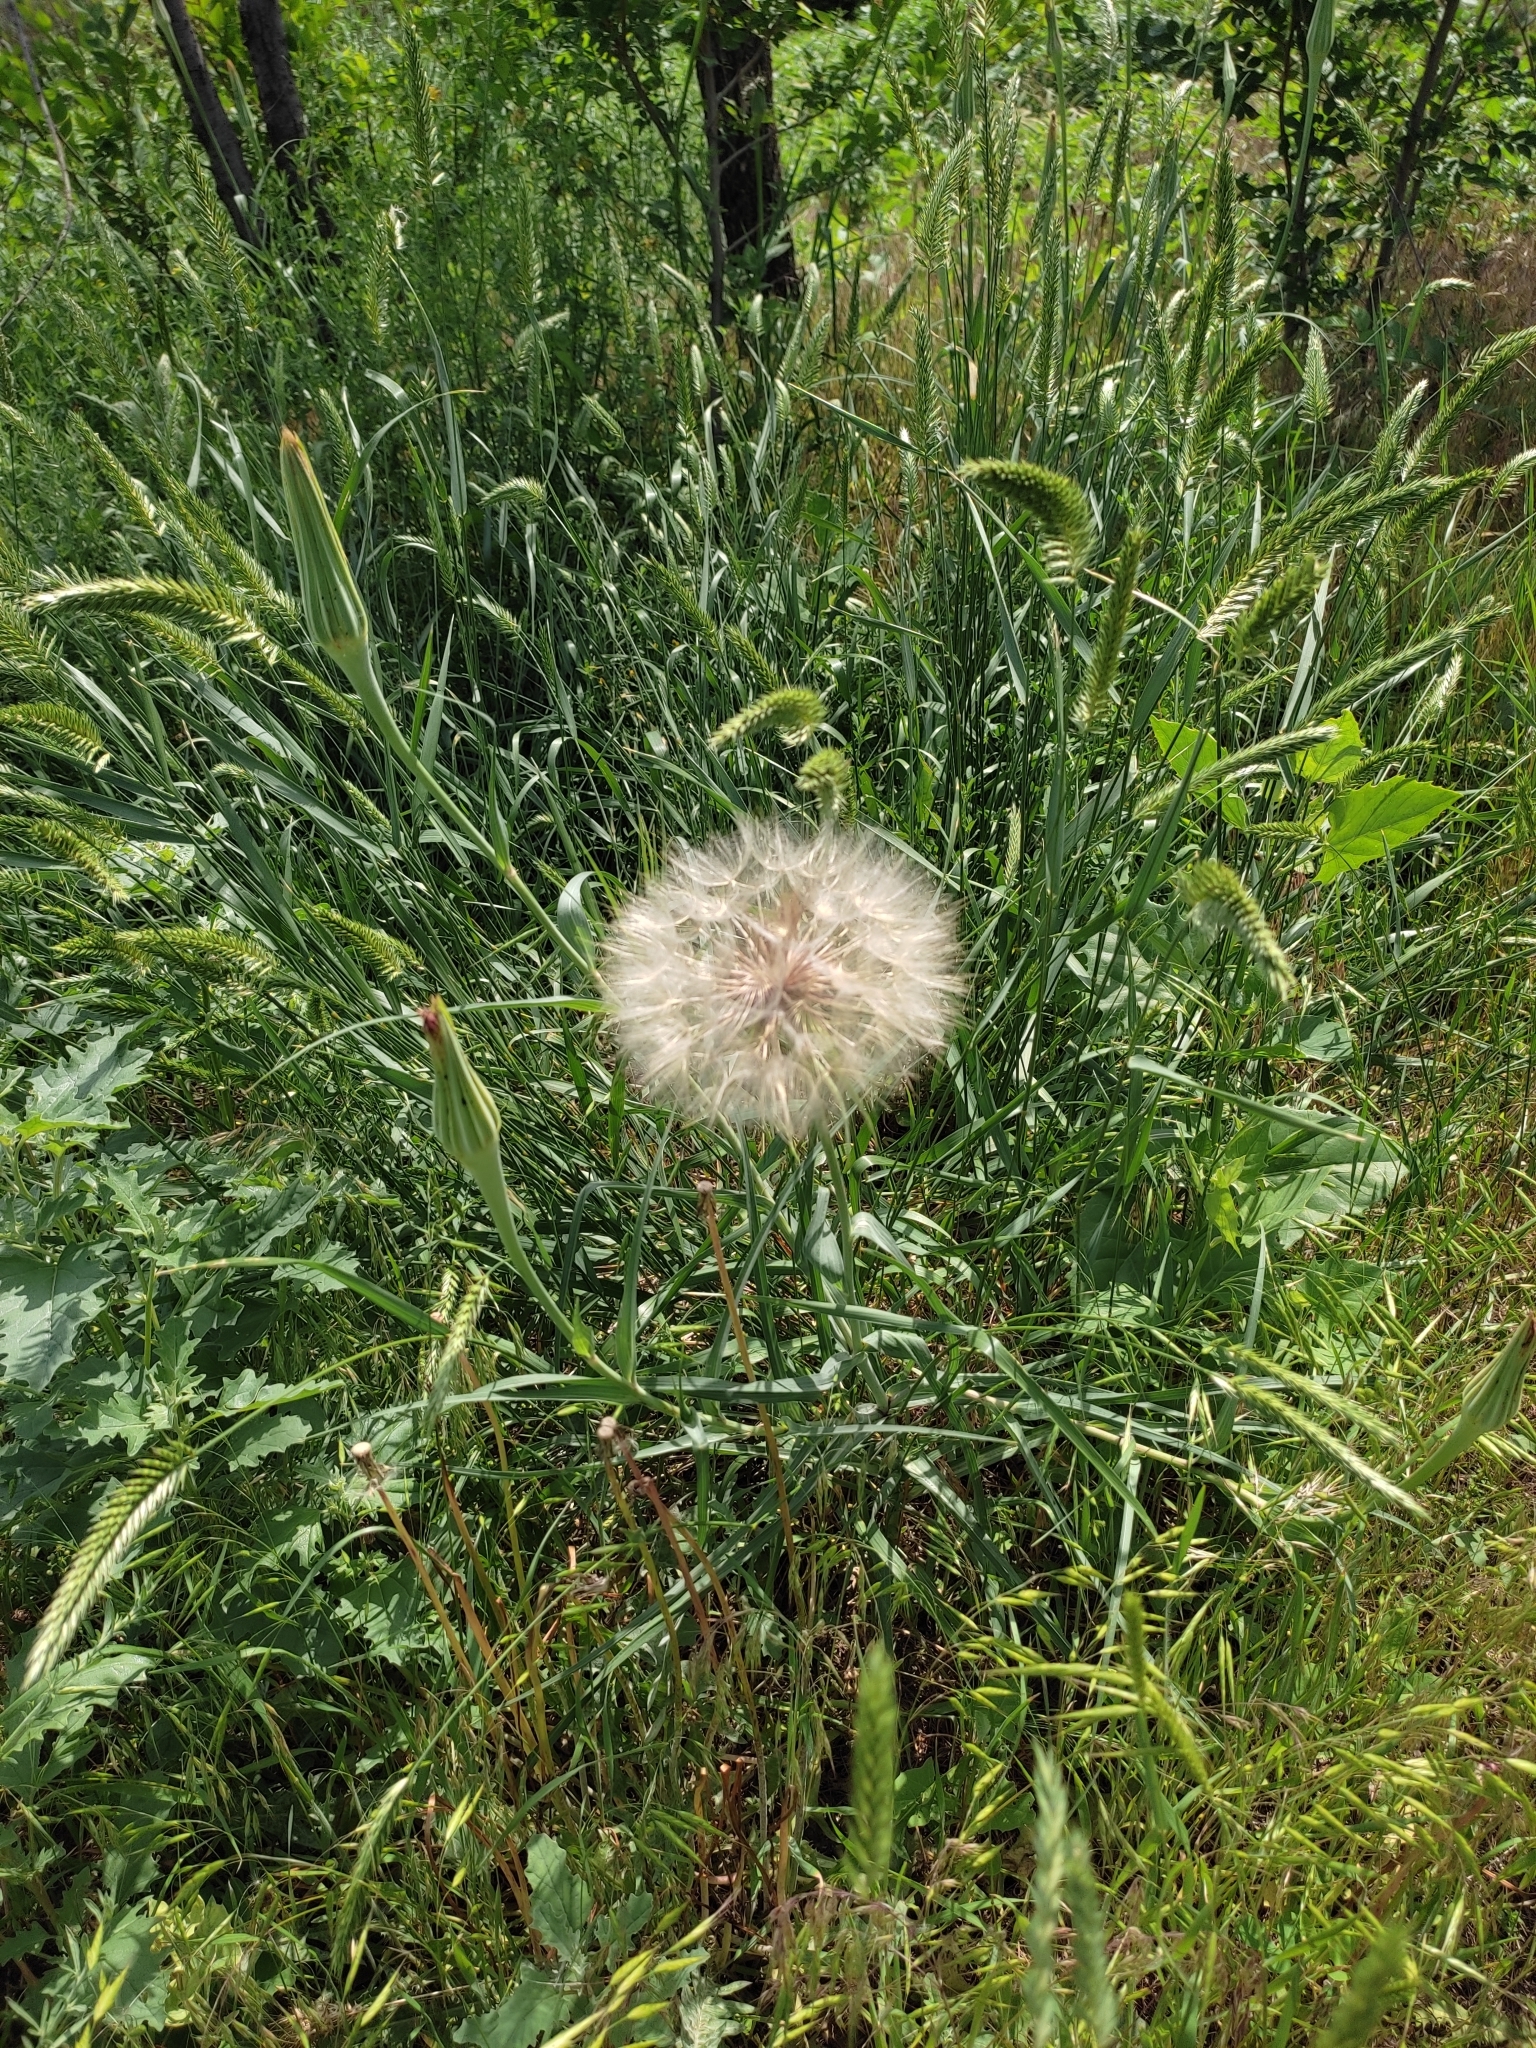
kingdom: Plantae
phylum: Tracheophyta
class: Magnoliopsida
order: Asterales
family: Asteraceae
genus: Tragopogon
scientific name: Tragopogon dubius
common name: Yellow salsify
